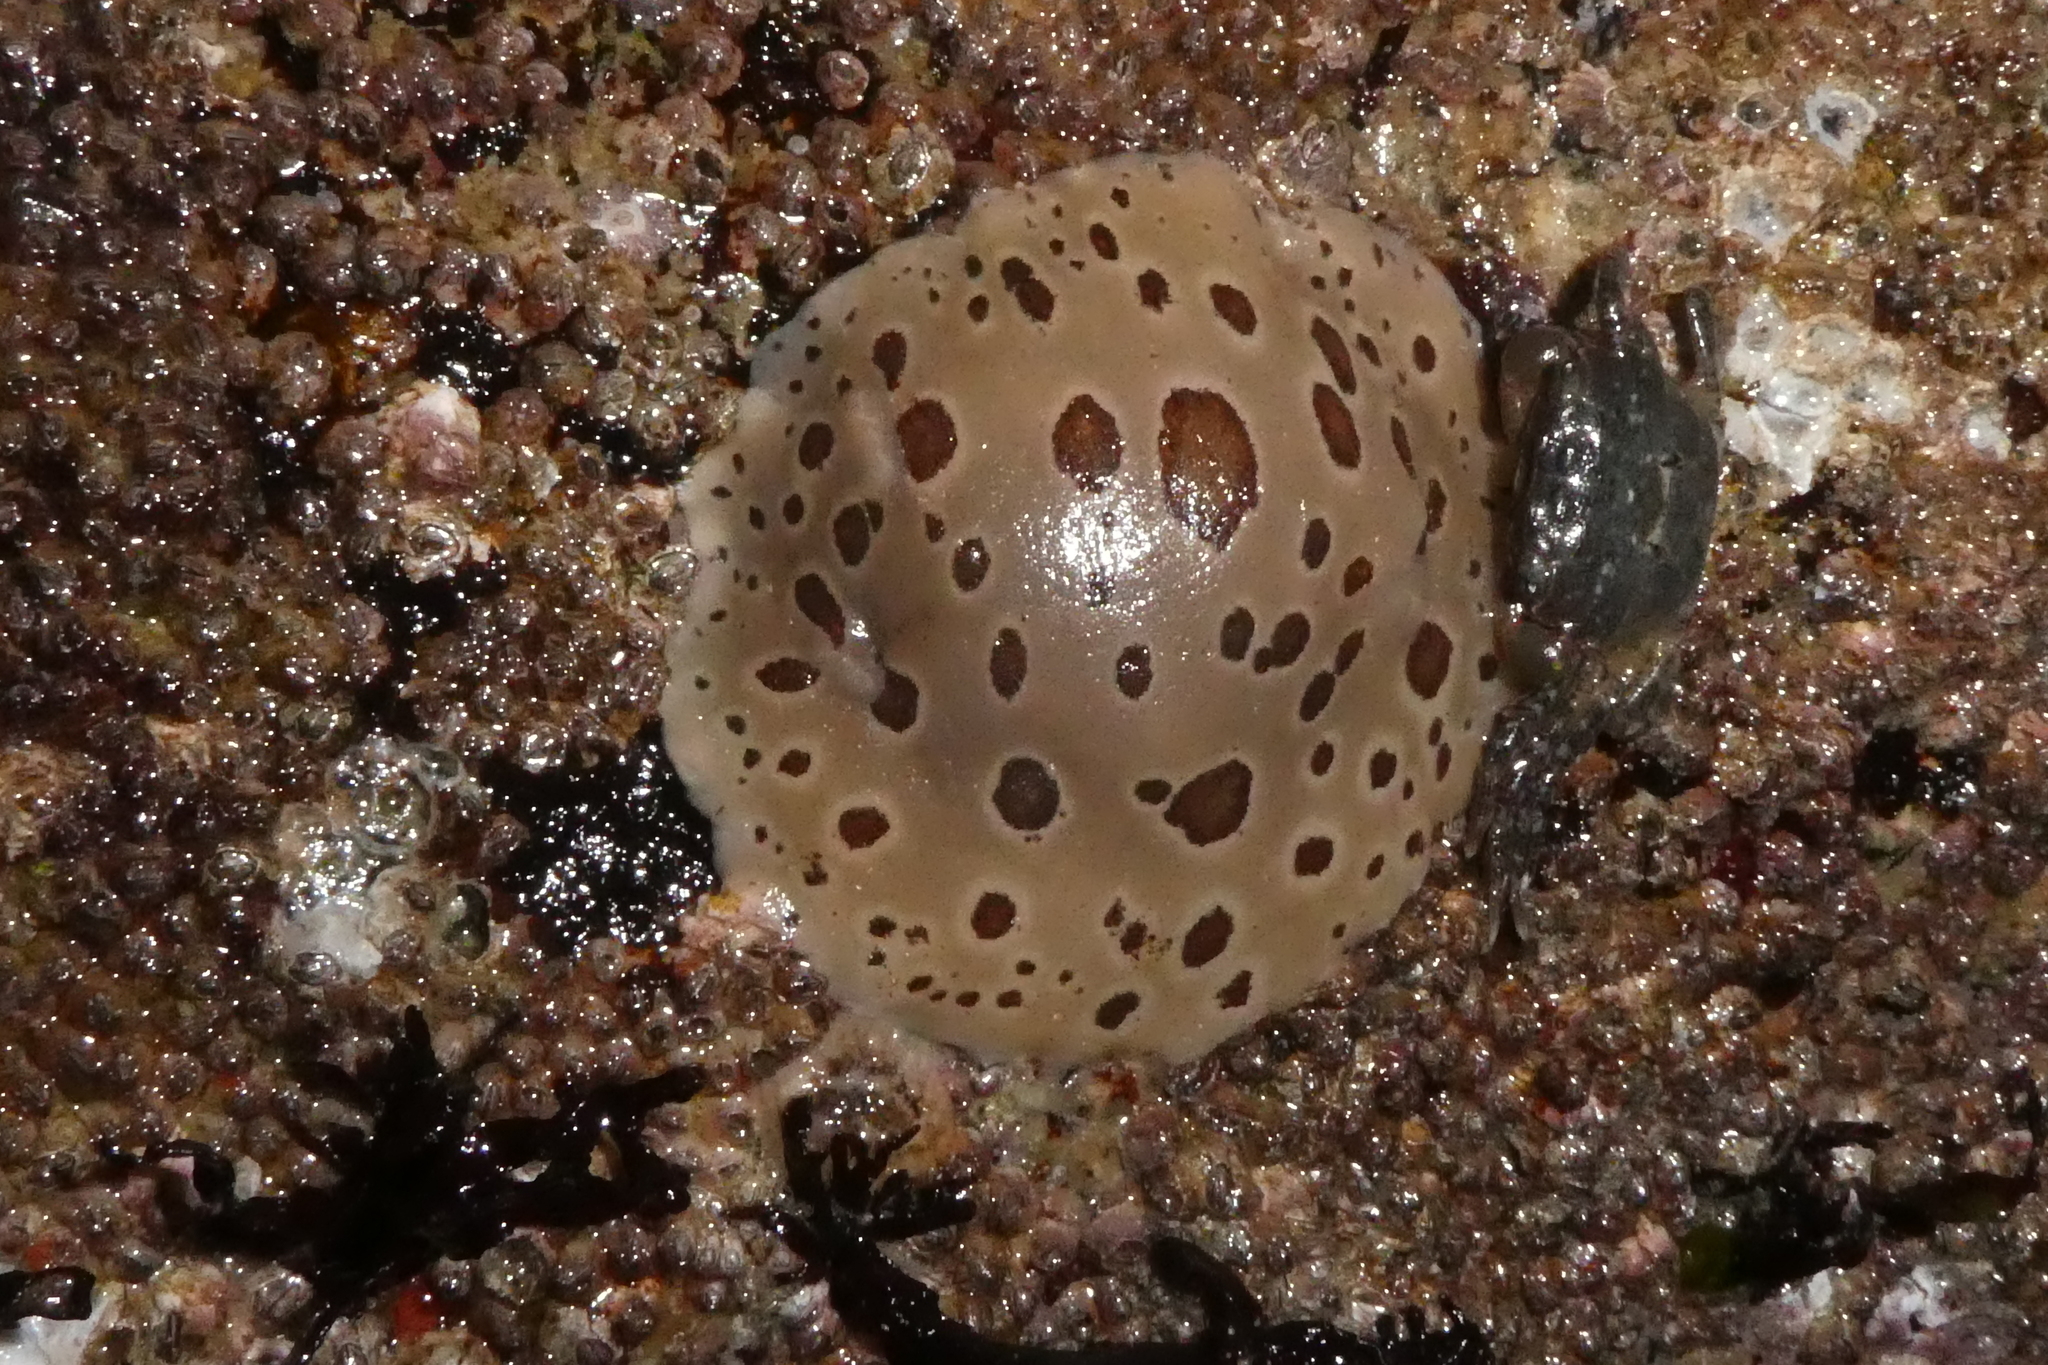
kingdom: Animalia
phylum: Mollusca
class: Gastropoda
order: Nudibranchia
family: Discodorididae
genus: Diaulula
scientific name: Diaulula odonoghuei
